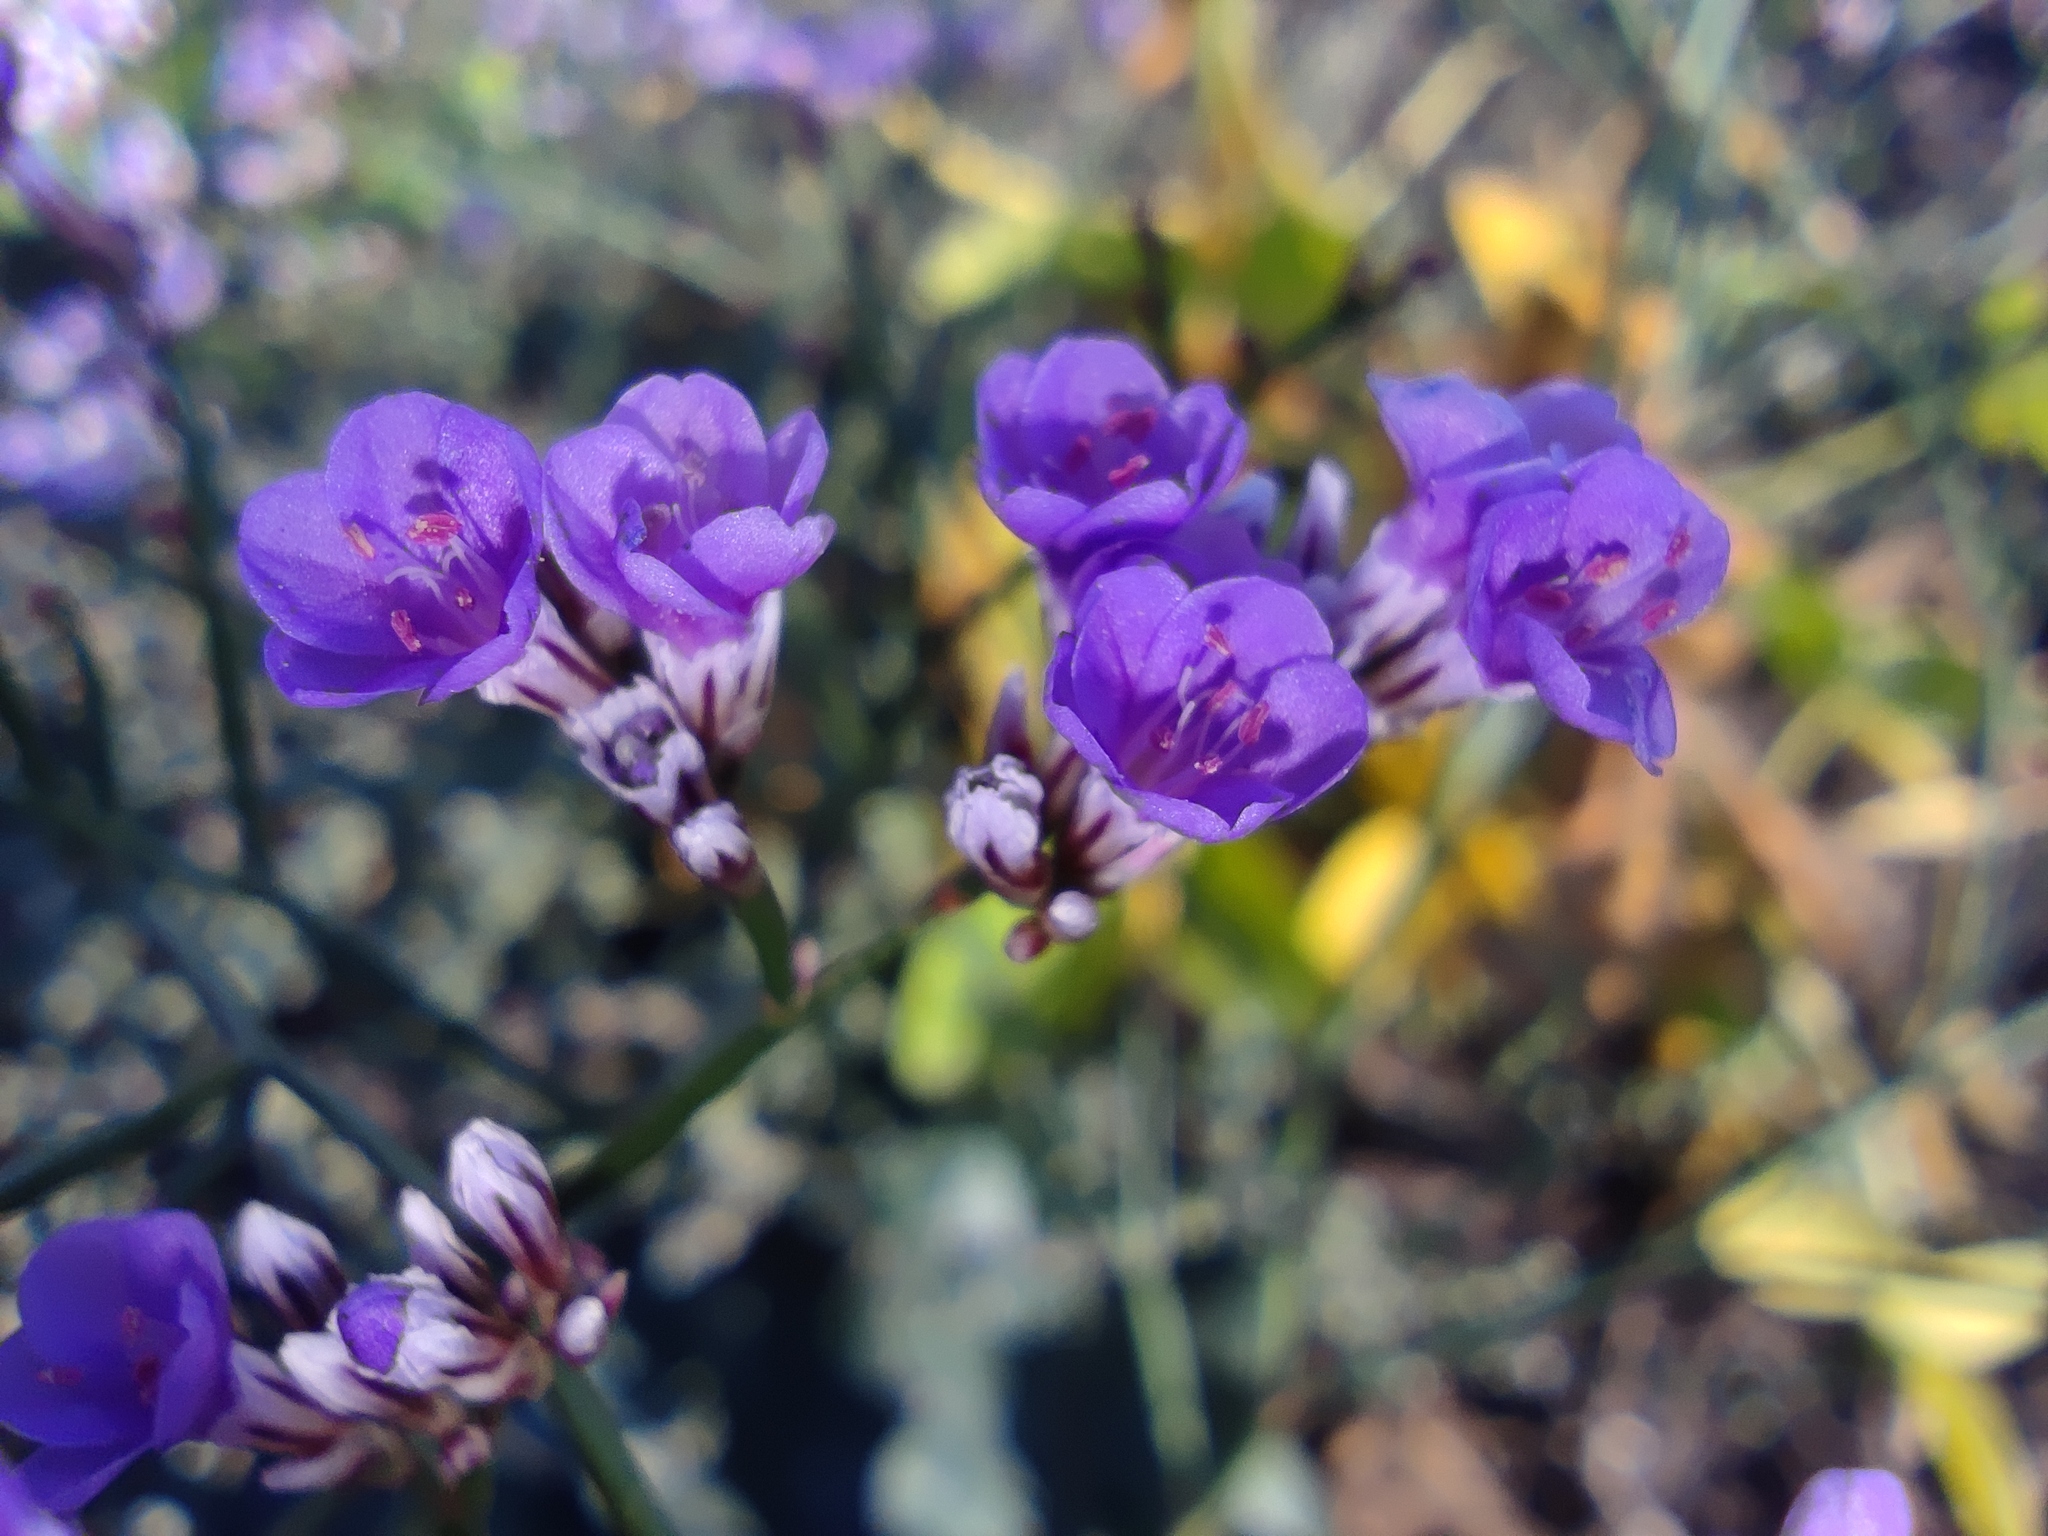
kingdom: Plantae
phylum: Tracheophyta
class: Magnoliopsida
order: Caryophyllales
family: Plumbaginaceae
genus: Limonium
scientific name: Limonium gmelini
